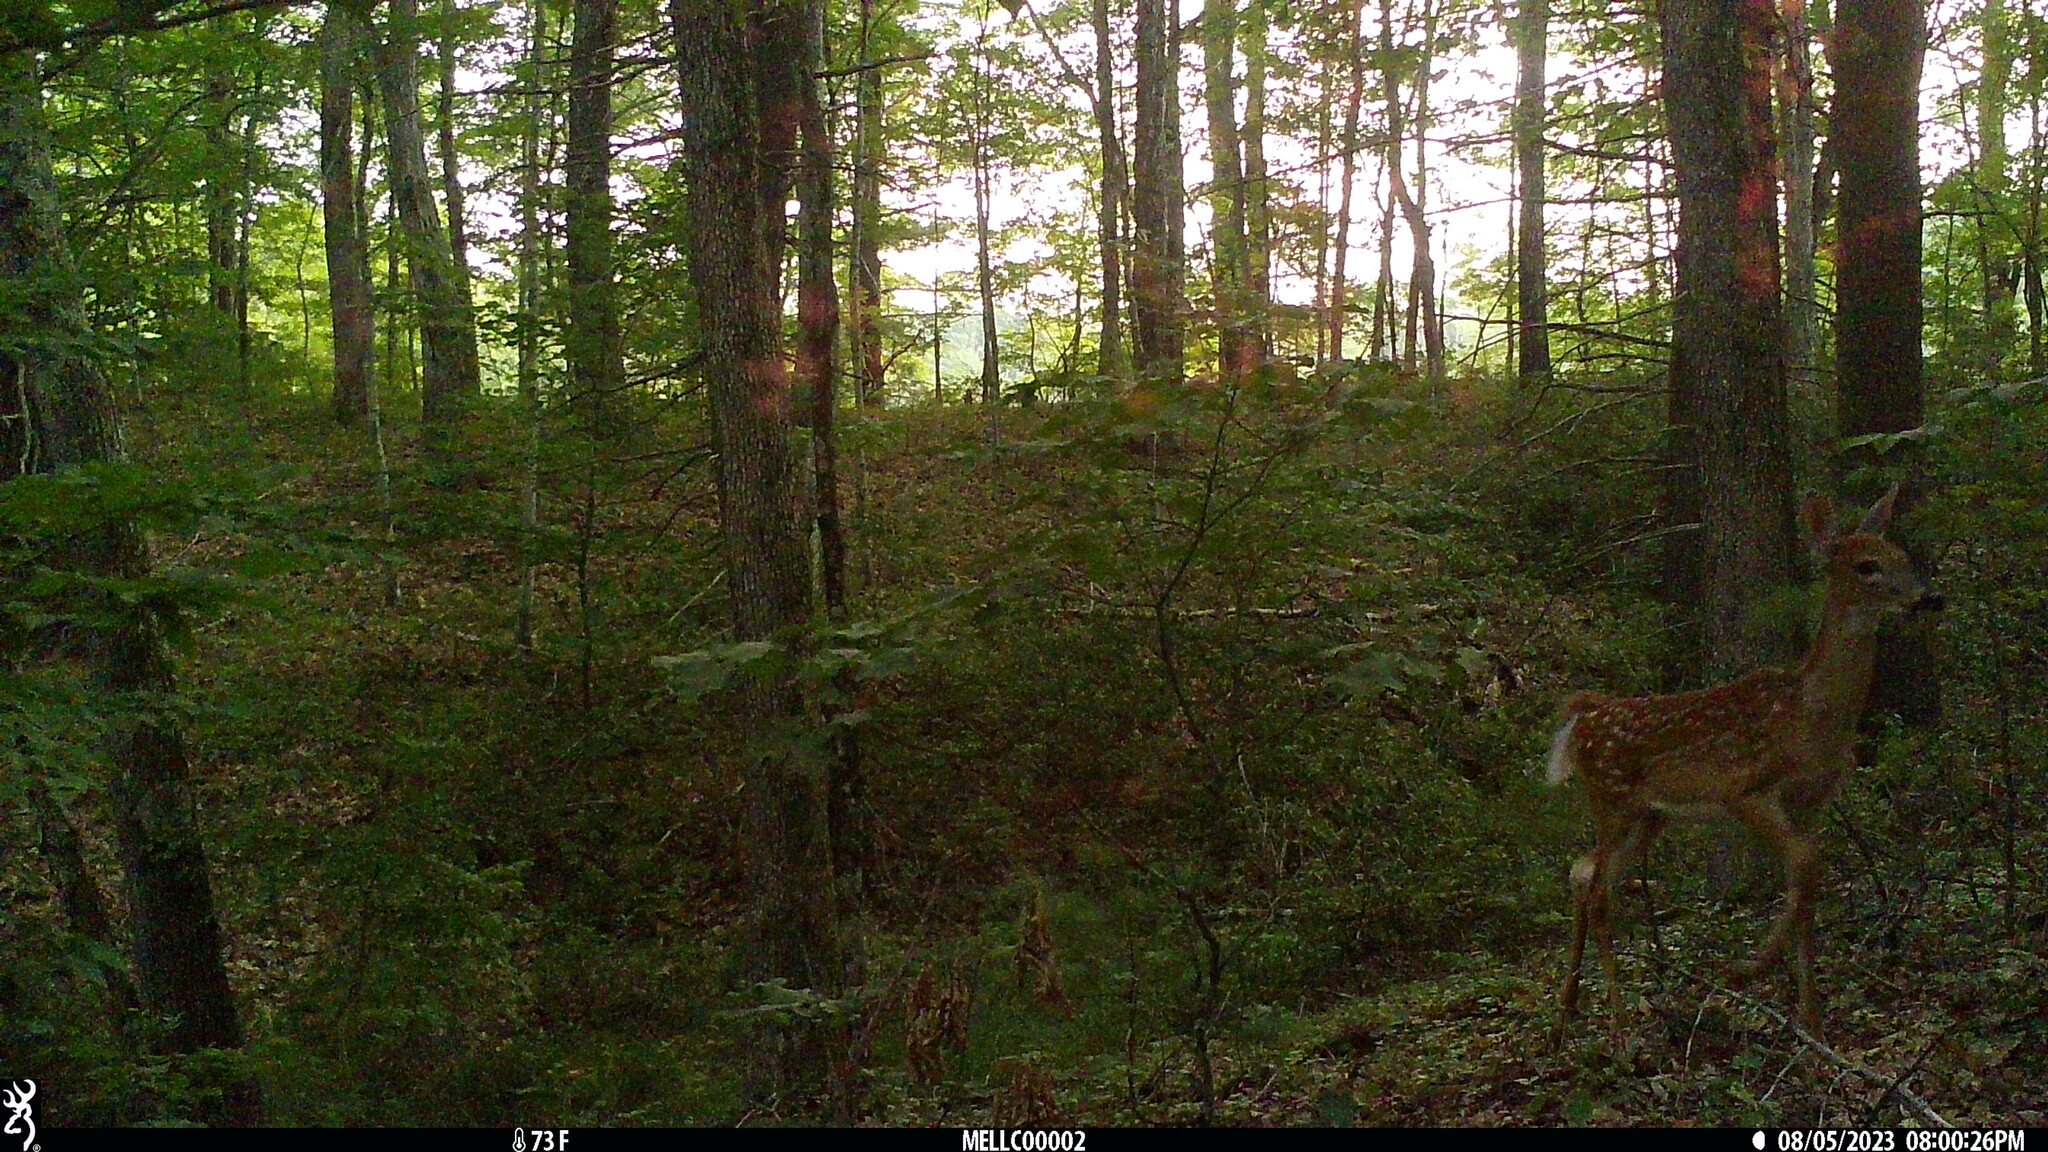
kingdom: Animalia
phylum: Chordata
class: Mammalia
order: Artiodactyla
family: Cervidae
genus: Odocoileus
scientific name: Odocoileus virginianus
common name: White-tailed deer
